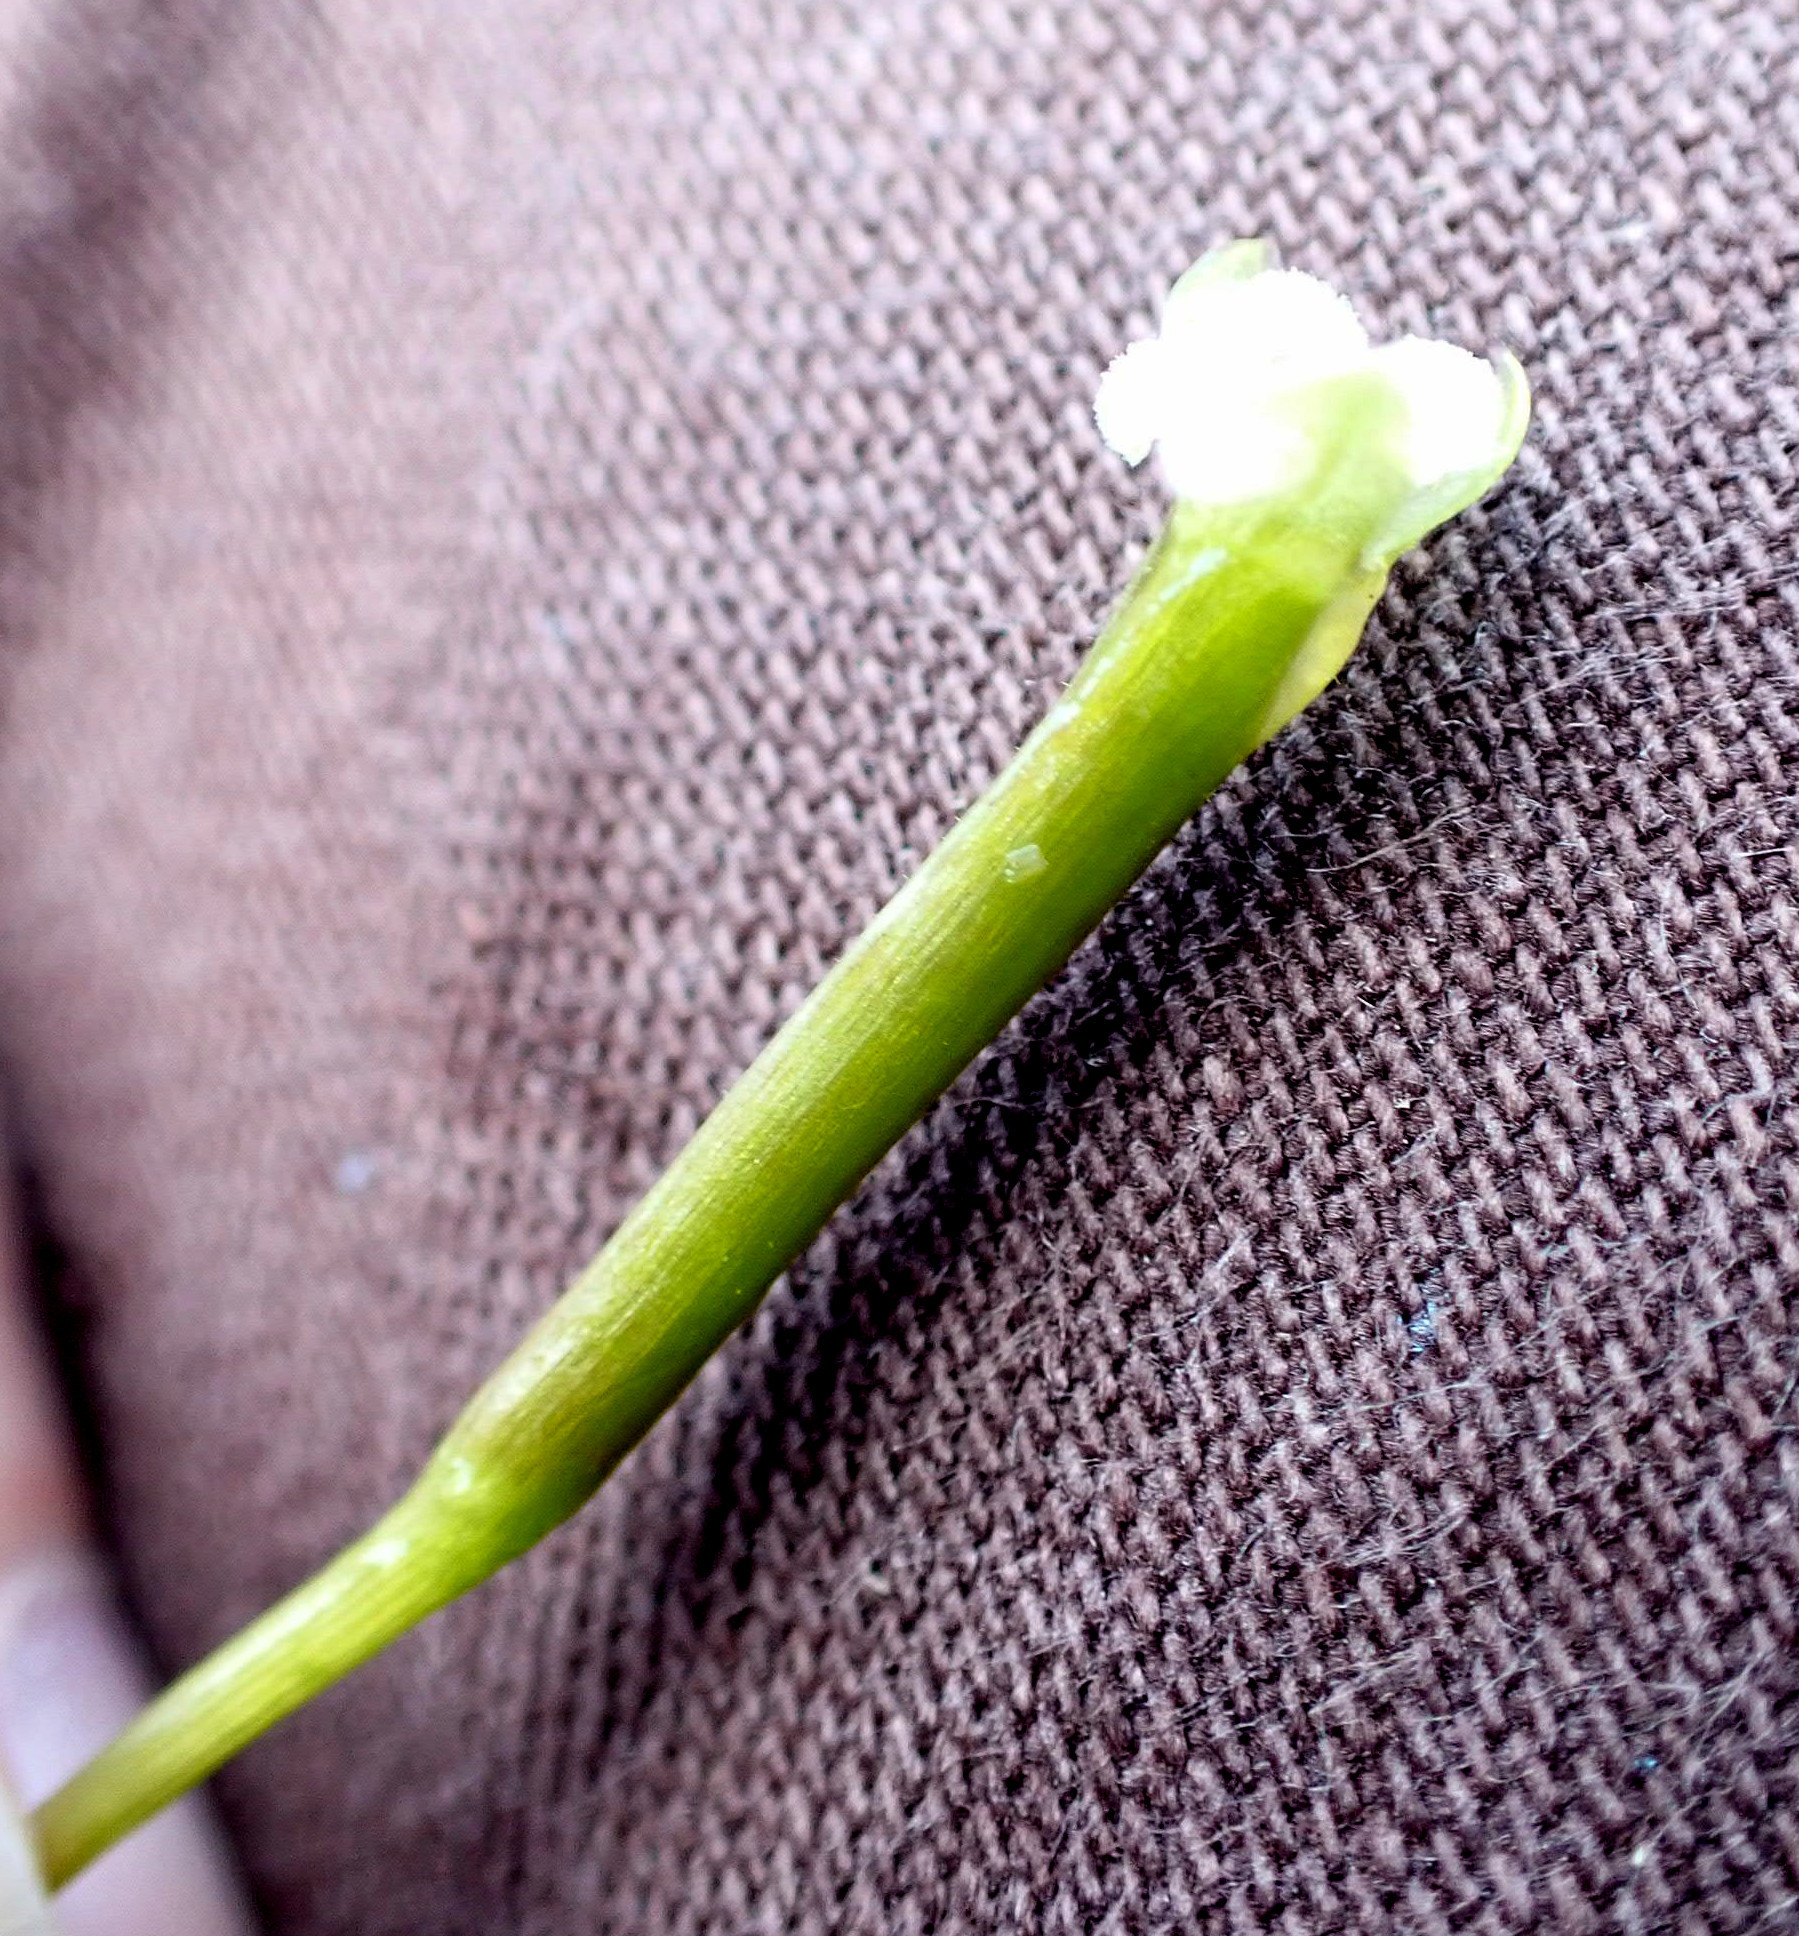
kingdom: Plantae
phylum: Tracheophyta
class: Liliopsida
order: Alismatales
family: Hydrocharitaceae
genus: Vallisneria
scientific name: Vallisneria americana
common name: American eelgrass
